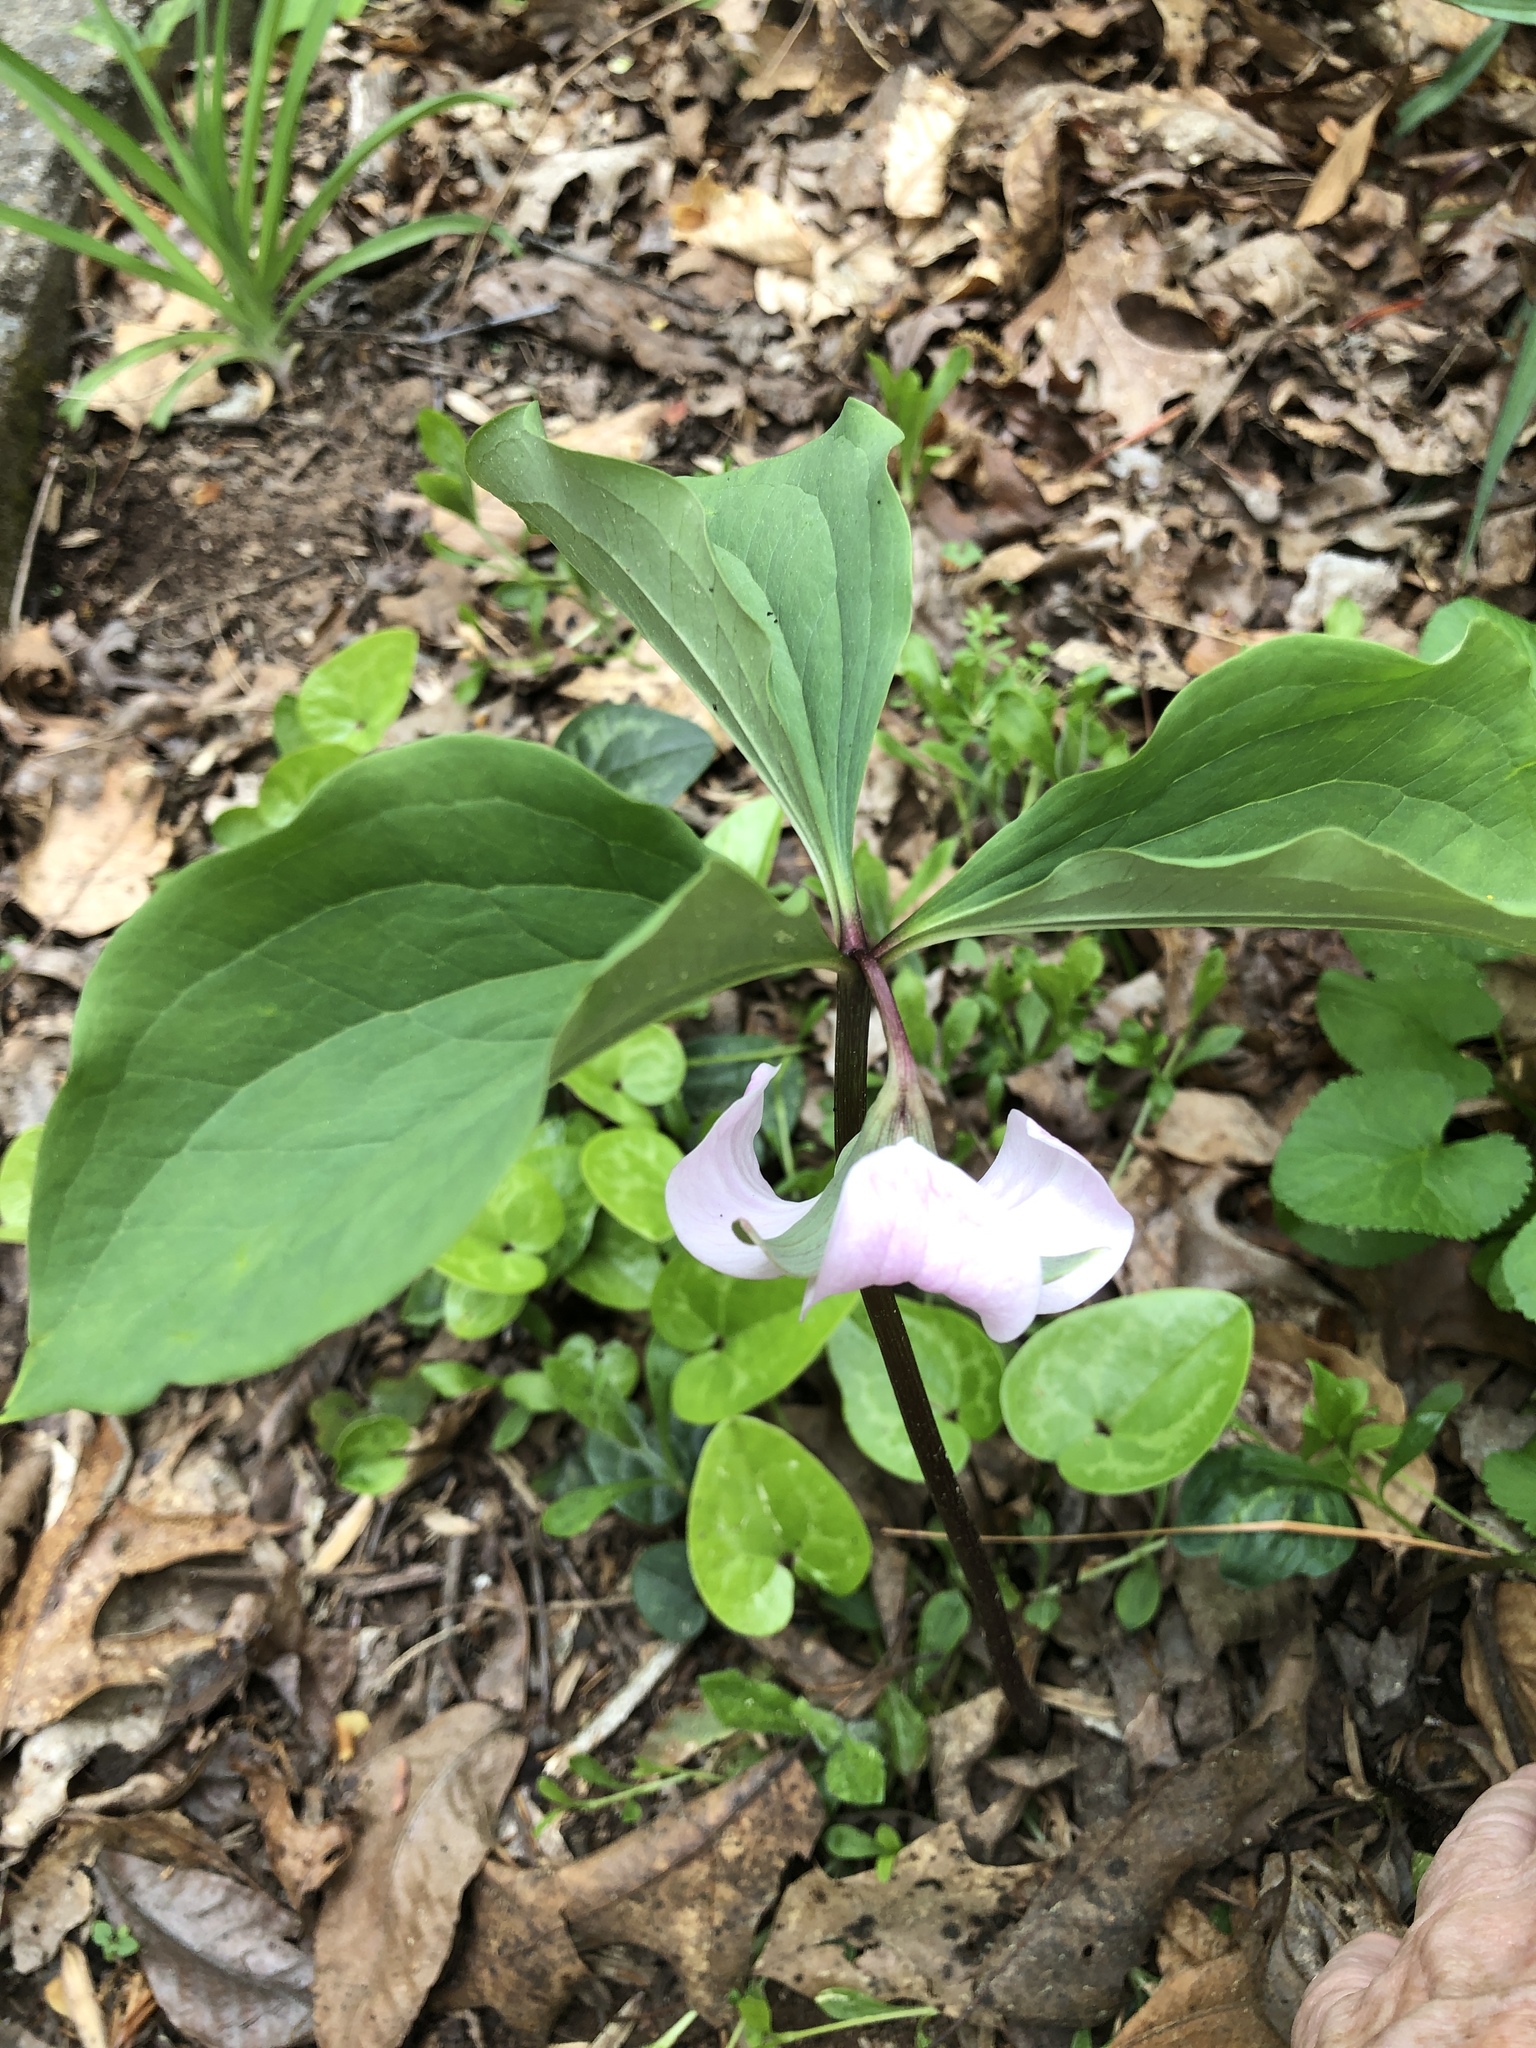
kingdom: Plantae
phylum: Tracheophyta
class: Liliopsida
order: Liliales
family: Melanthiaceae
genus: Trillium
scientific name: Trillium catesbaei
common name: Bashful trillium
